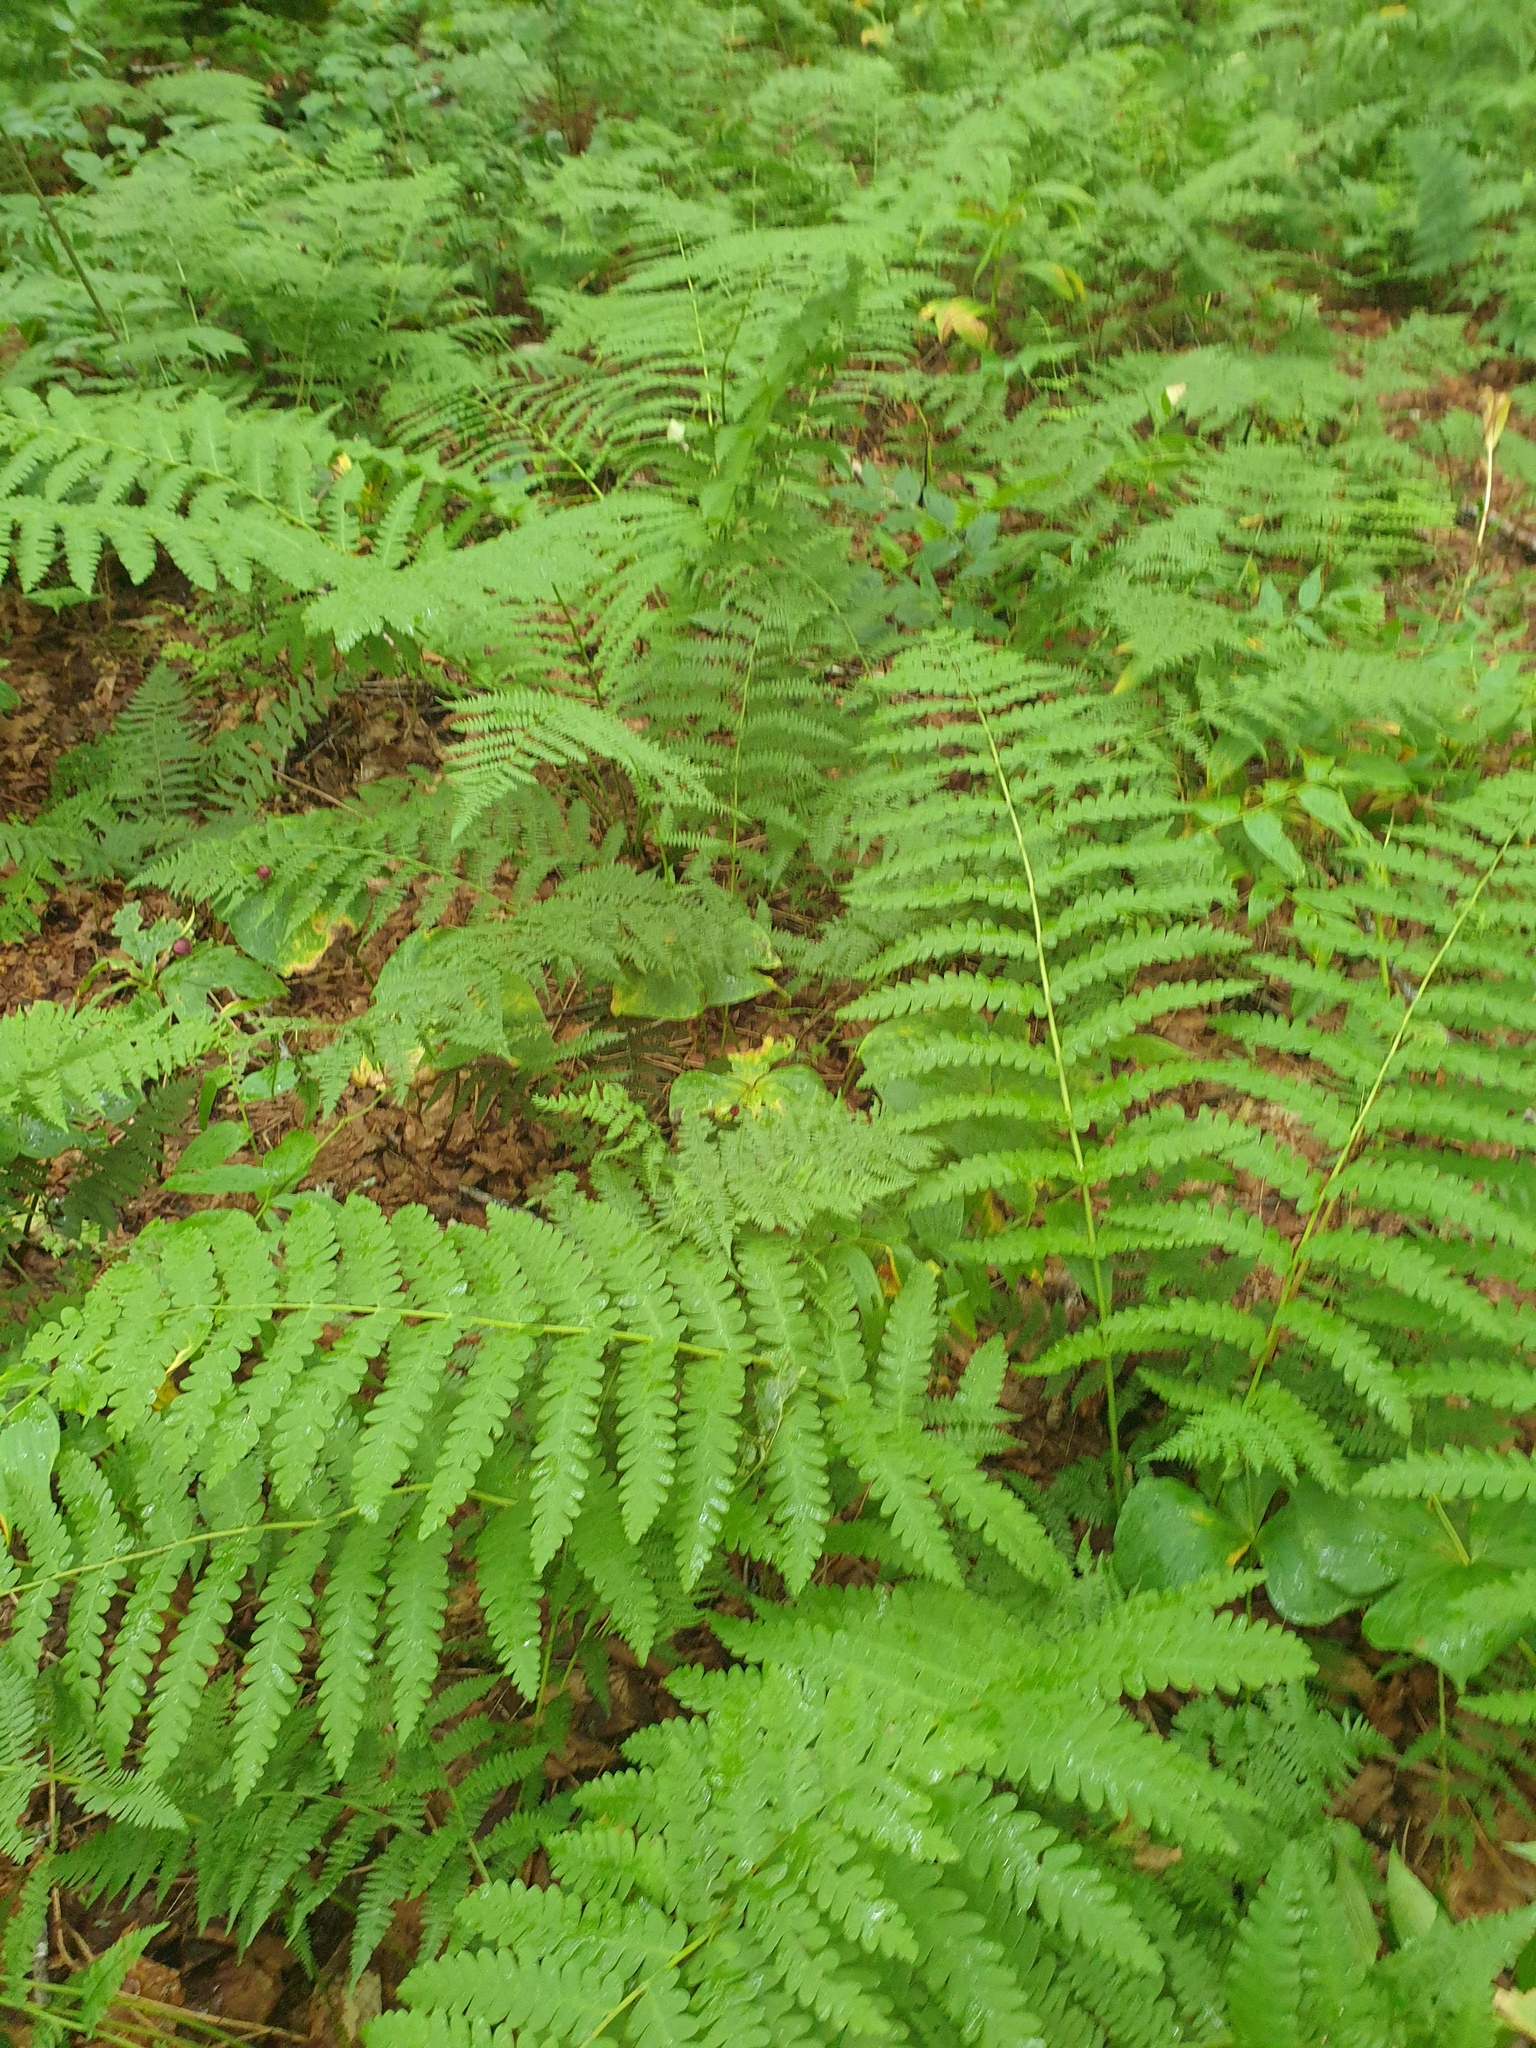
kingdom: Plantae
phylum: Tracheophyta
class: Polypodiopsida
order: Osmundales
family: Osmundaceae
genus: Claytosmunda
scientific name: Claytosmunda claytoniana
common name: Clayton's fern
